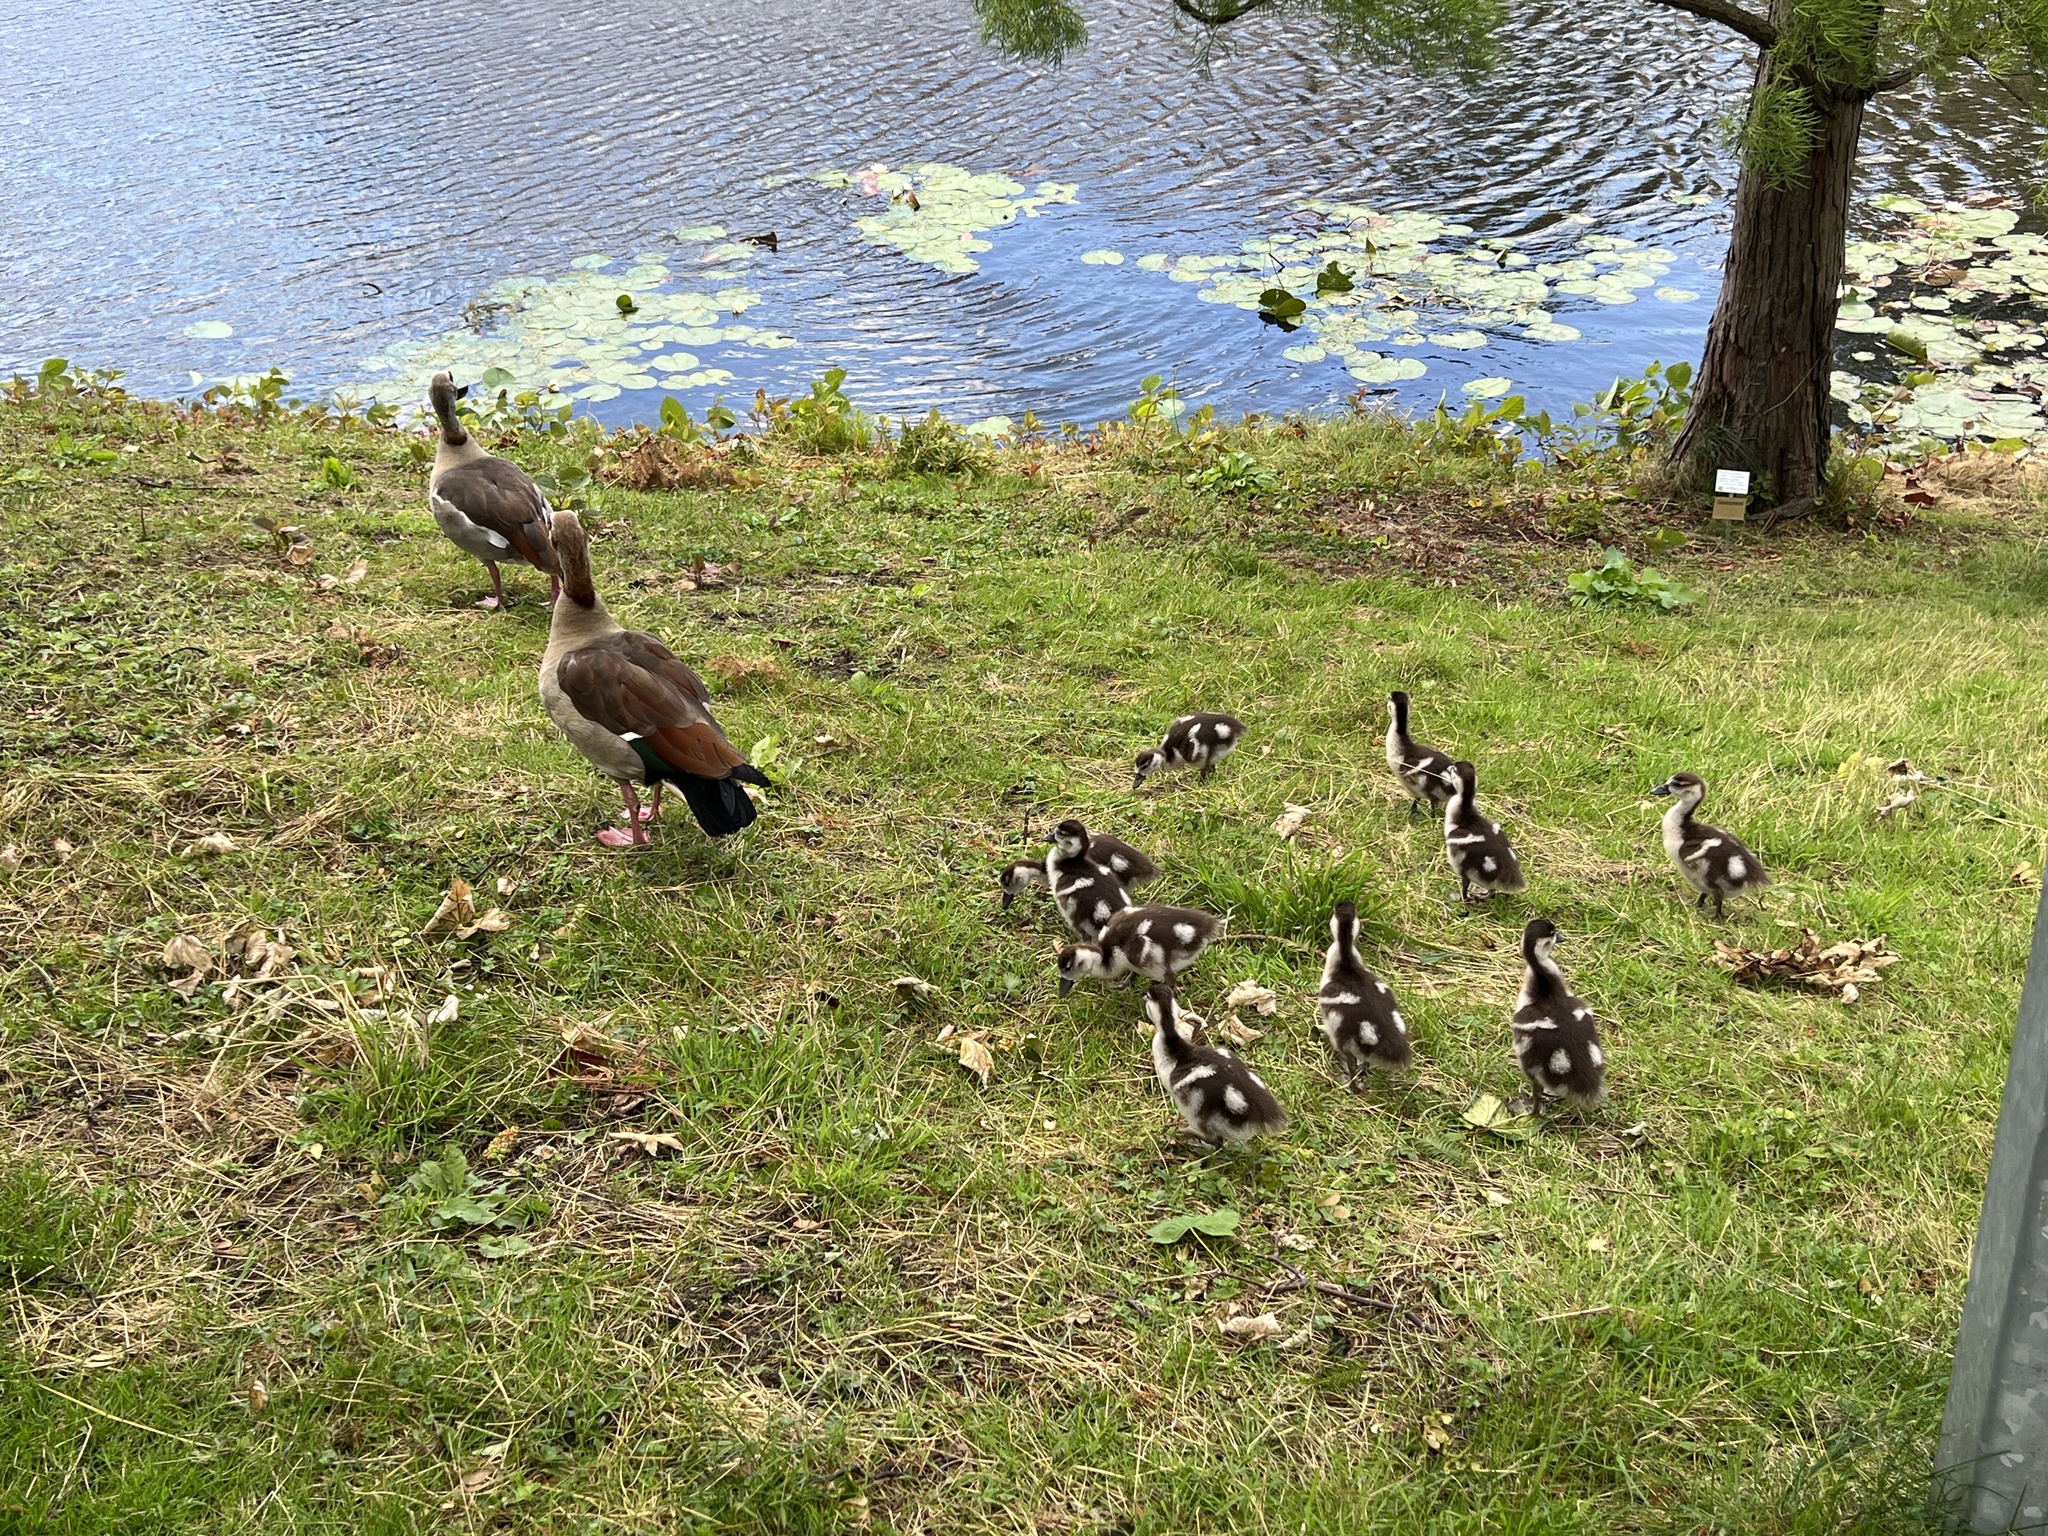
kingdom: Animalia
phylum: Chordata
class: Aves
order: Anseriformes
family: Anatidae
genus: Alopochen
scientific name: Alopochen aegyptiaca
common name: Egyptian goose
